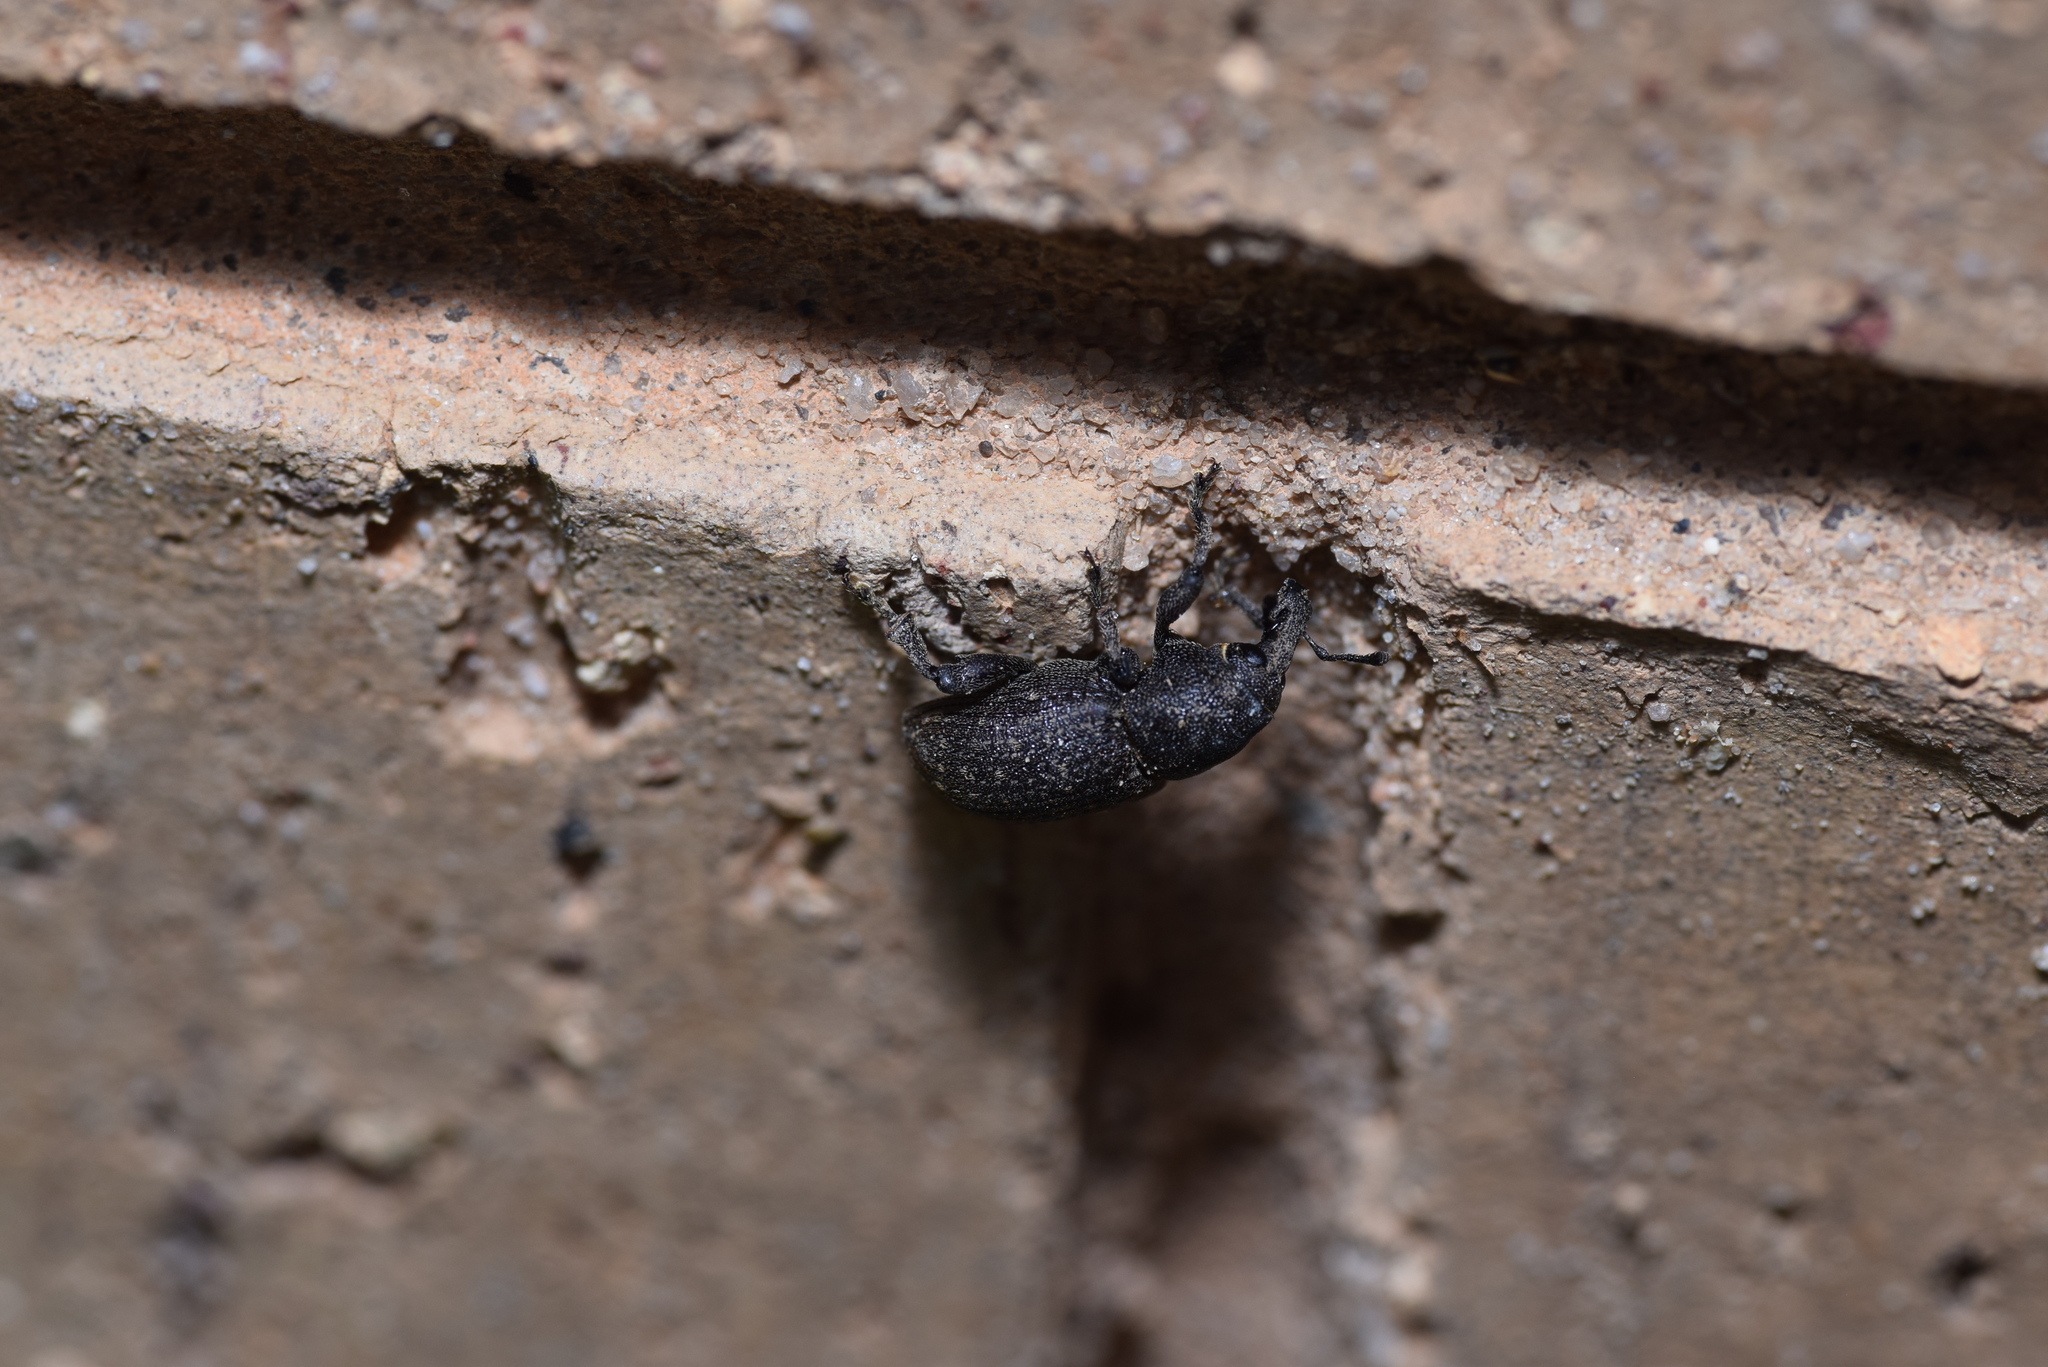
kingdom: Animalia
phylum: Arthropoda
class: Insecta
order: Coleoptera
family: Curculionidae
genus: Pachylobius
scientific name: Pachylobius picivorus
